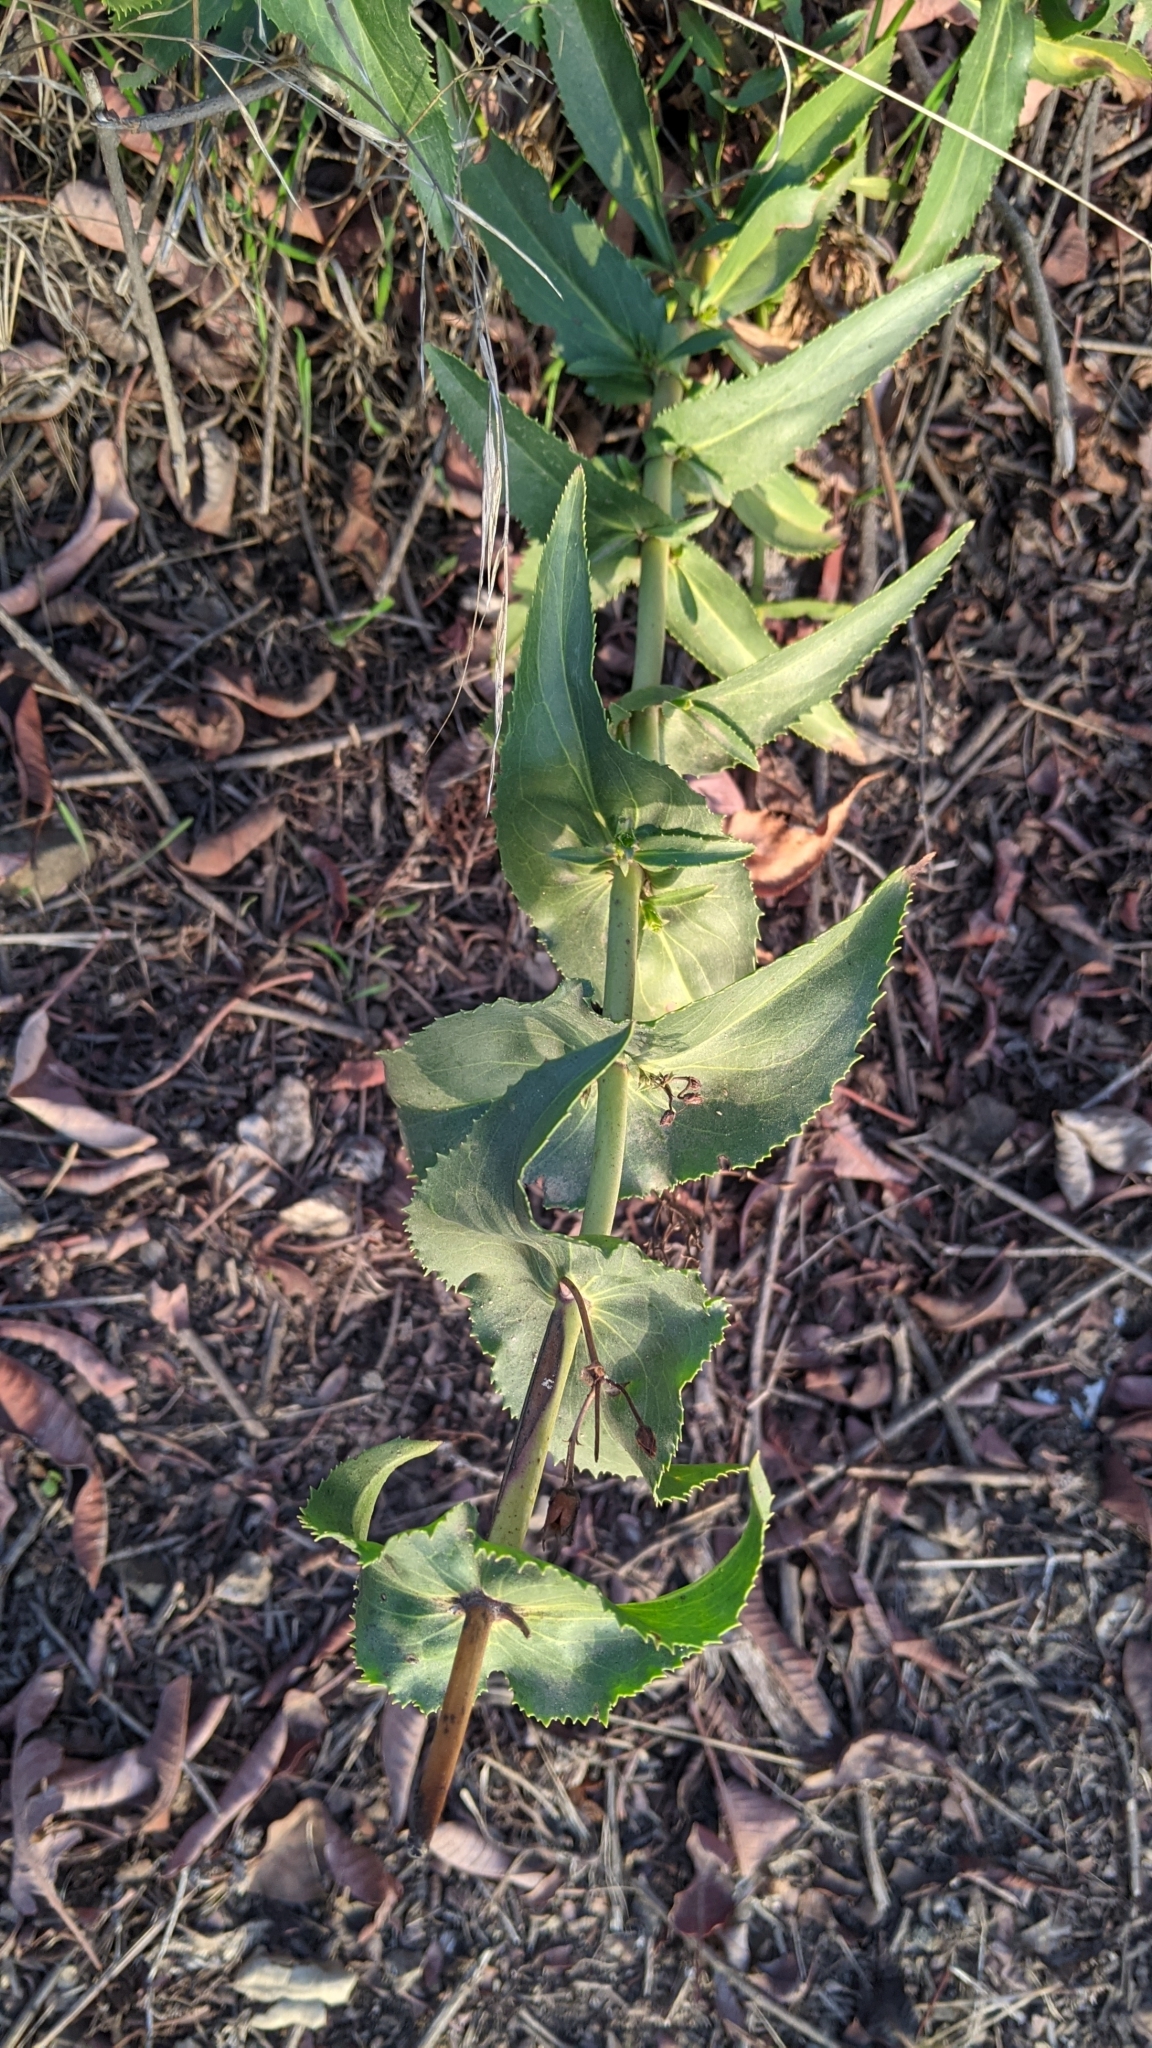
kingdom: Plantae
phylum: Tracheophyta
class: Magnoliopsida
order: Lamiales
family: Plantaginaceae
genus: Penstemon
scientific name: Penstemon spectabilis
